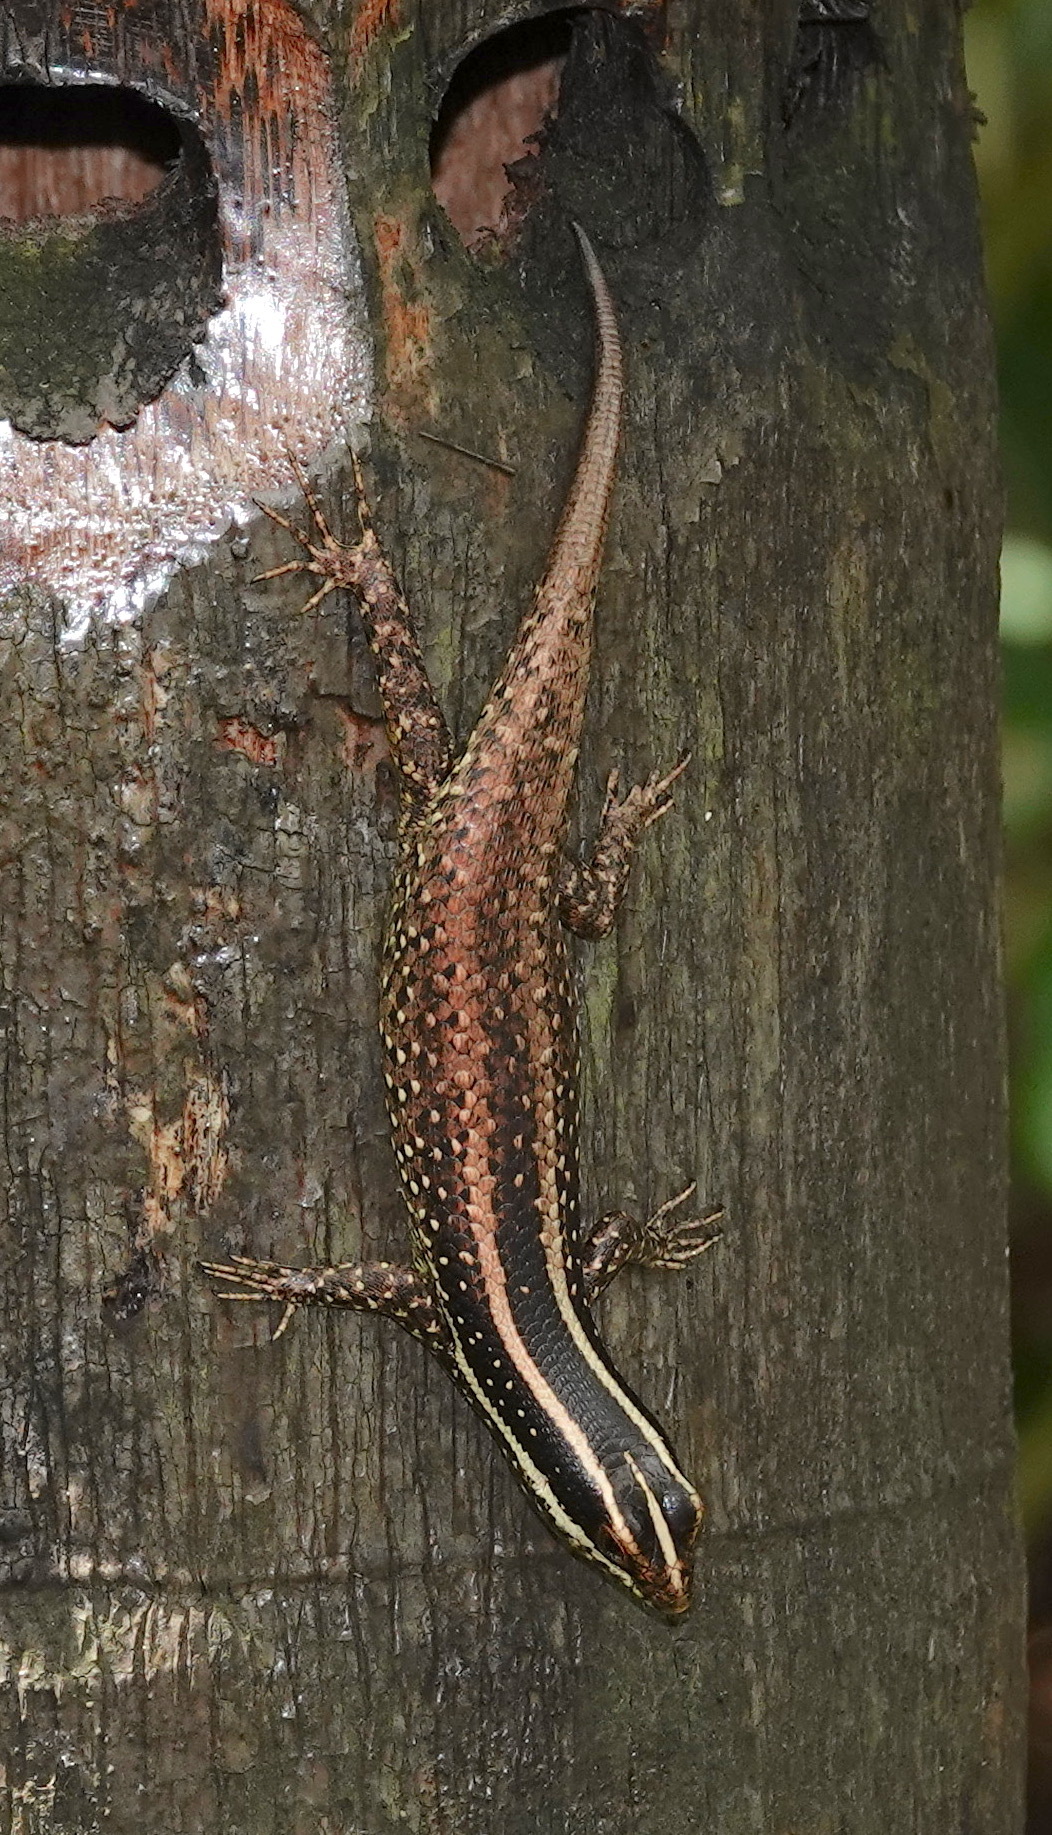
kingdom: Animalia
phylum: Chordata
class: Squamata
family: Scincidae
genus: Dasia
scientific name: Dasia vittata
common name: Borneo skink
